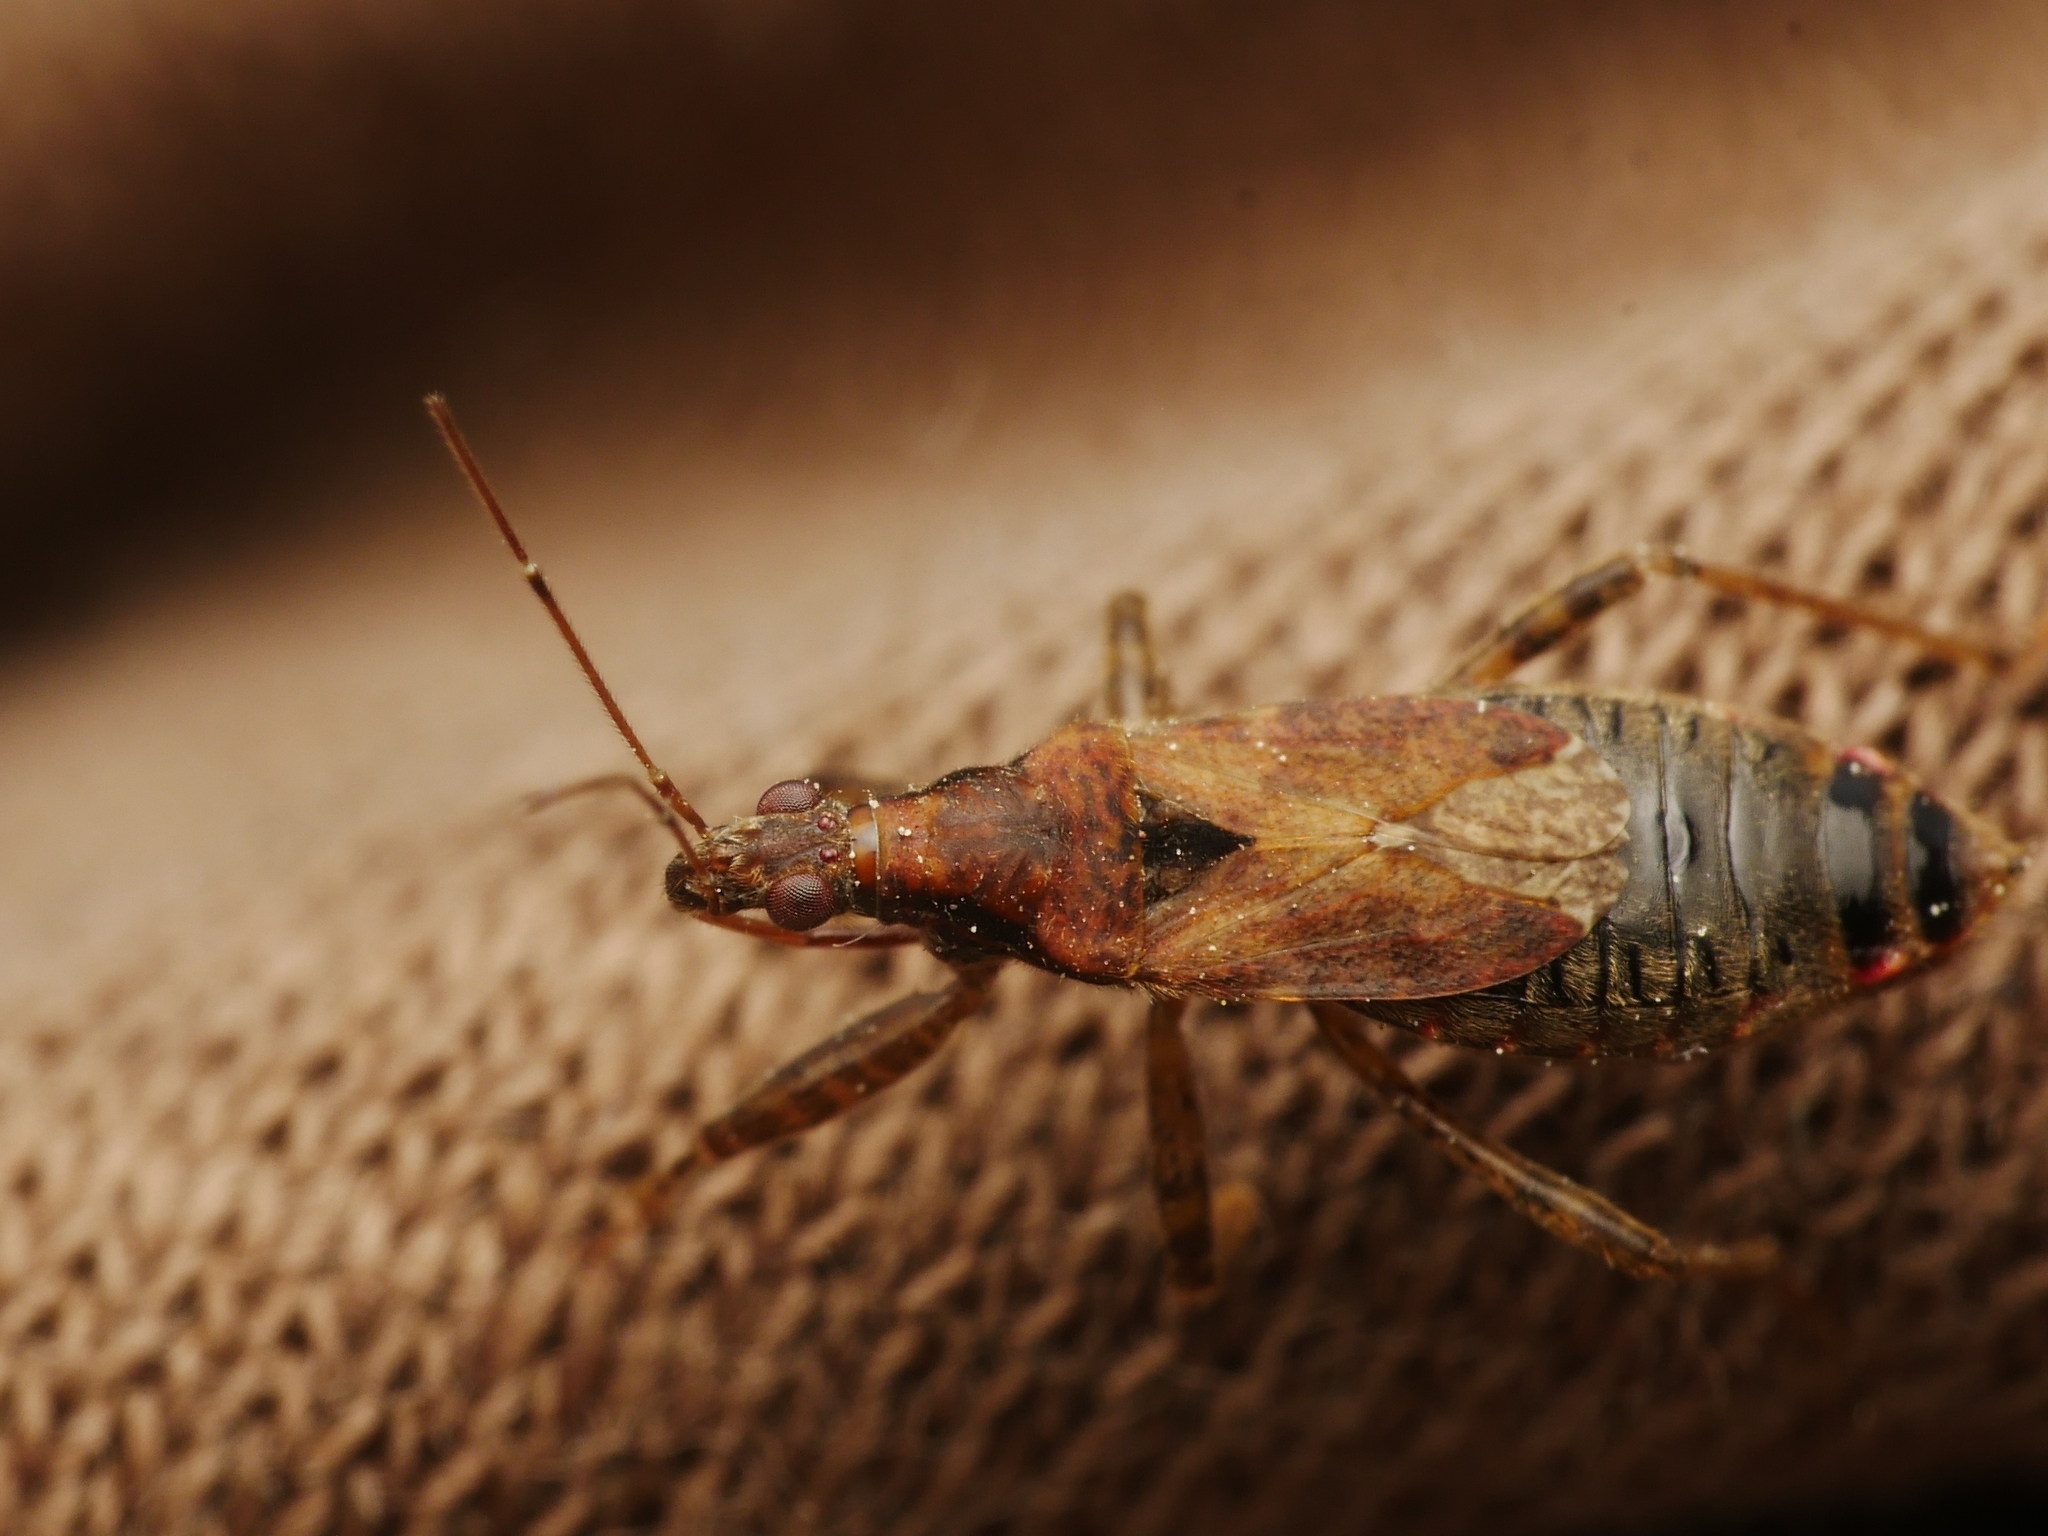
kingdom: Animalia
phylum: Arthropoda
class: Insecta
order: Hemiptera
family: Nabidae
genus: Himacerus
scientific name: Himacerus mirmicoides
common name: Ant damsel bug
